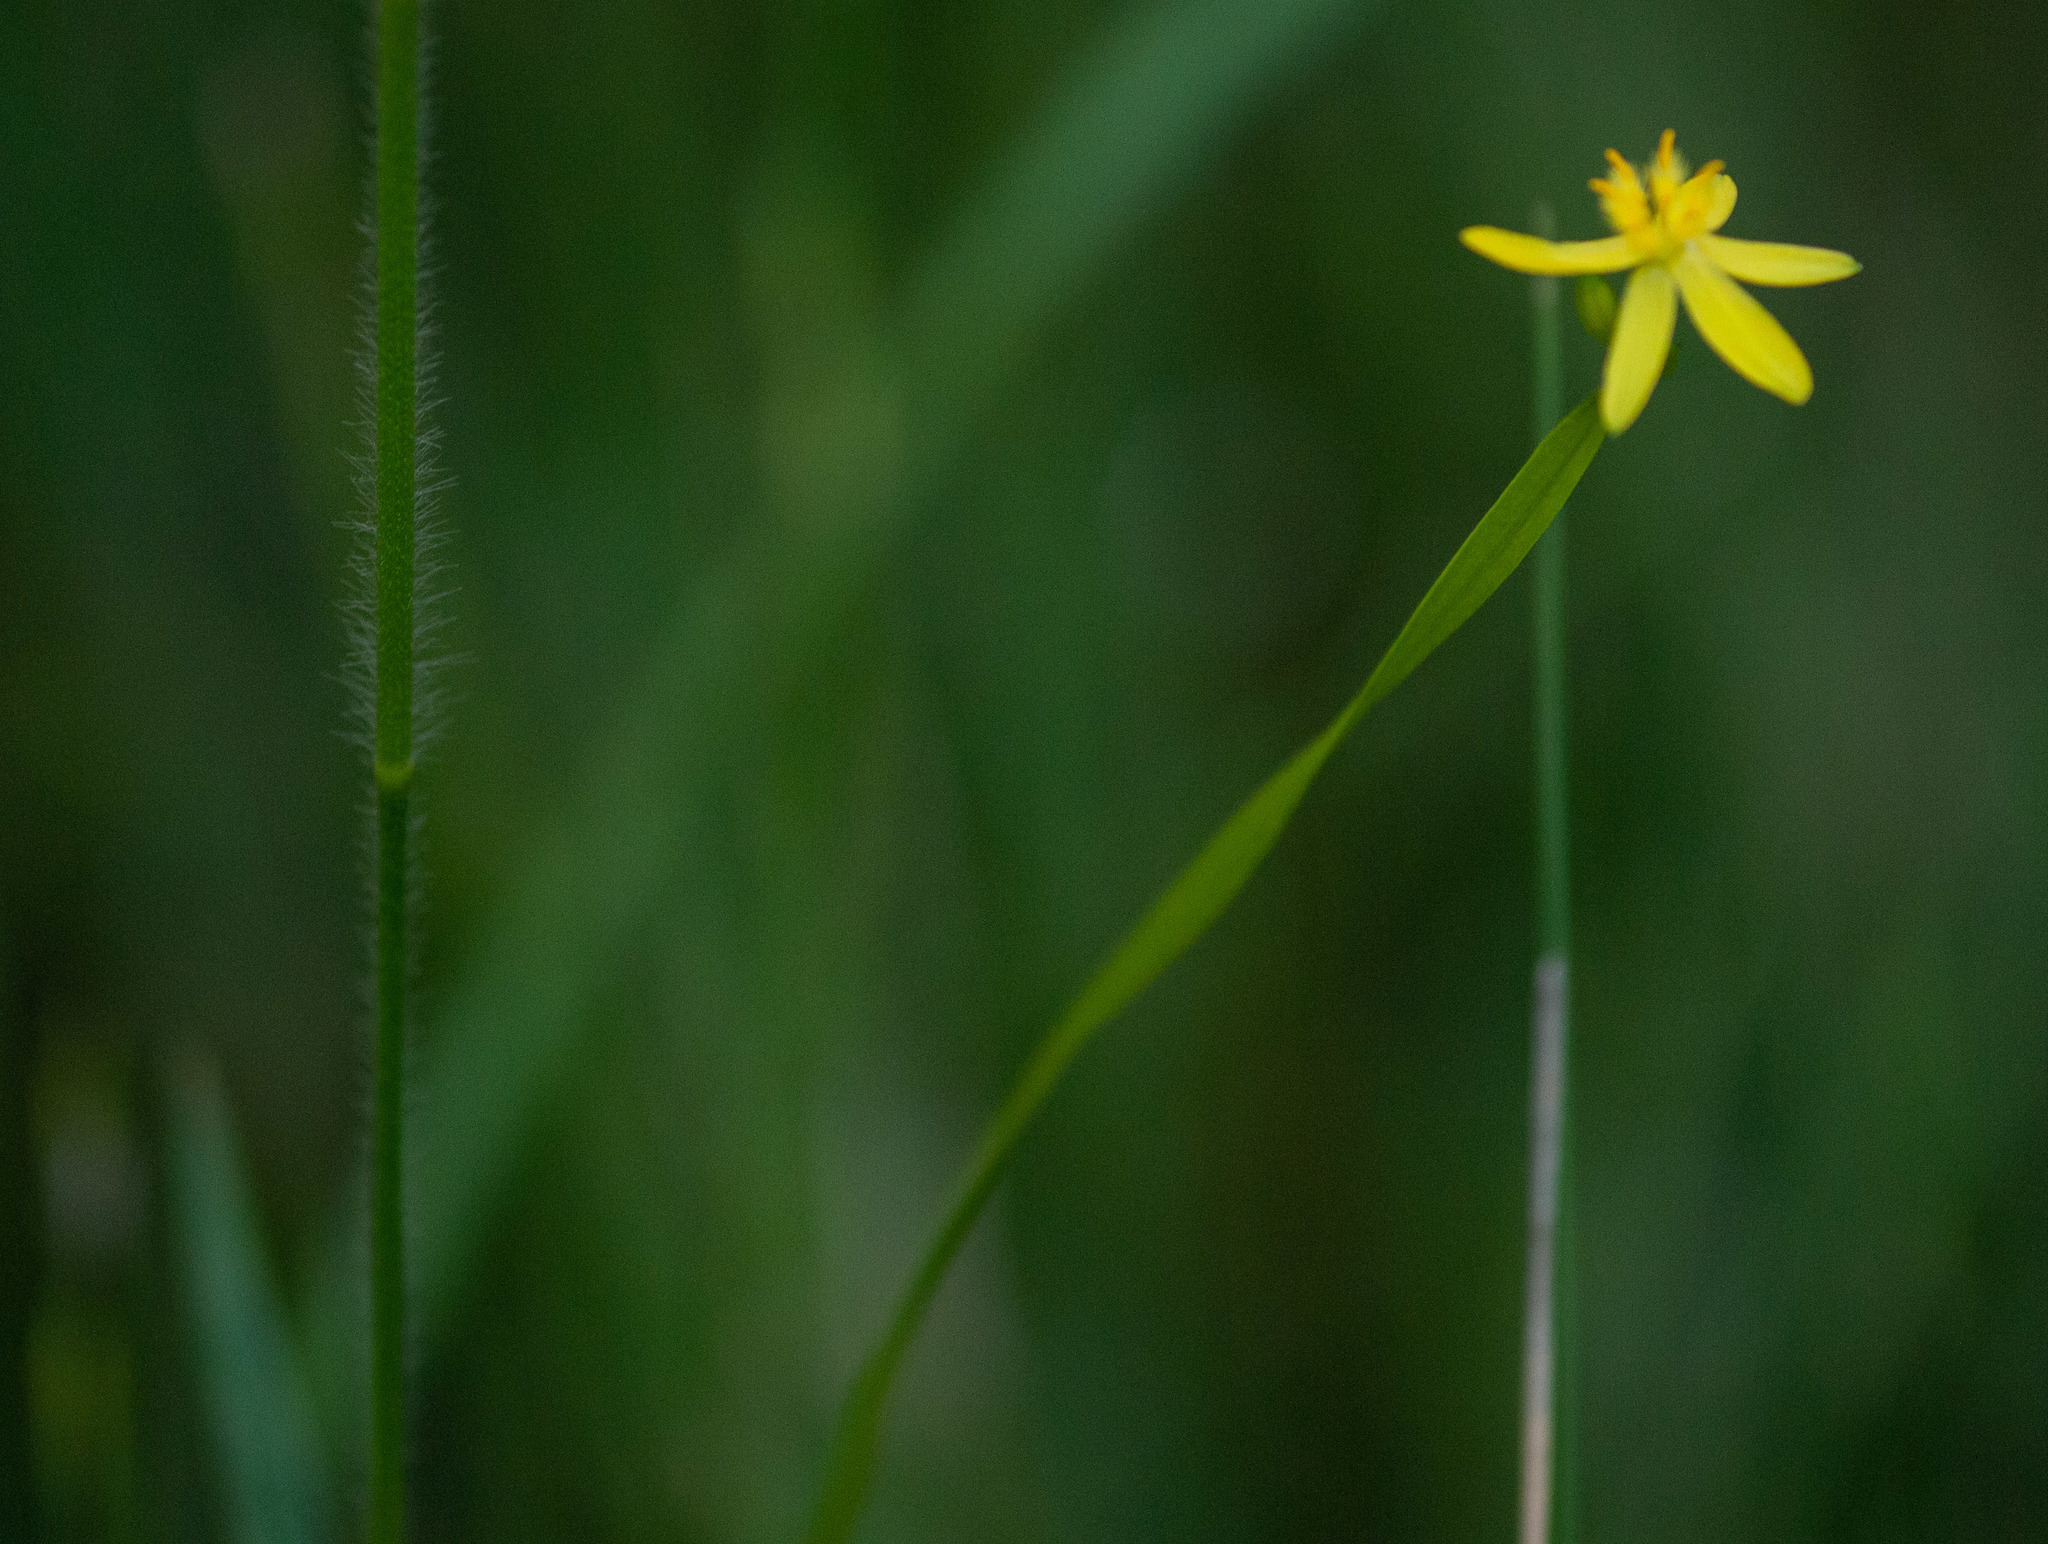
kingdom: Plantae
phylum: Tracheophyta
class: Liliopsida
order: Asparagales
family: Asphodelaceae
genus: Tricoryne
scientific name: Tricoryne anceps
